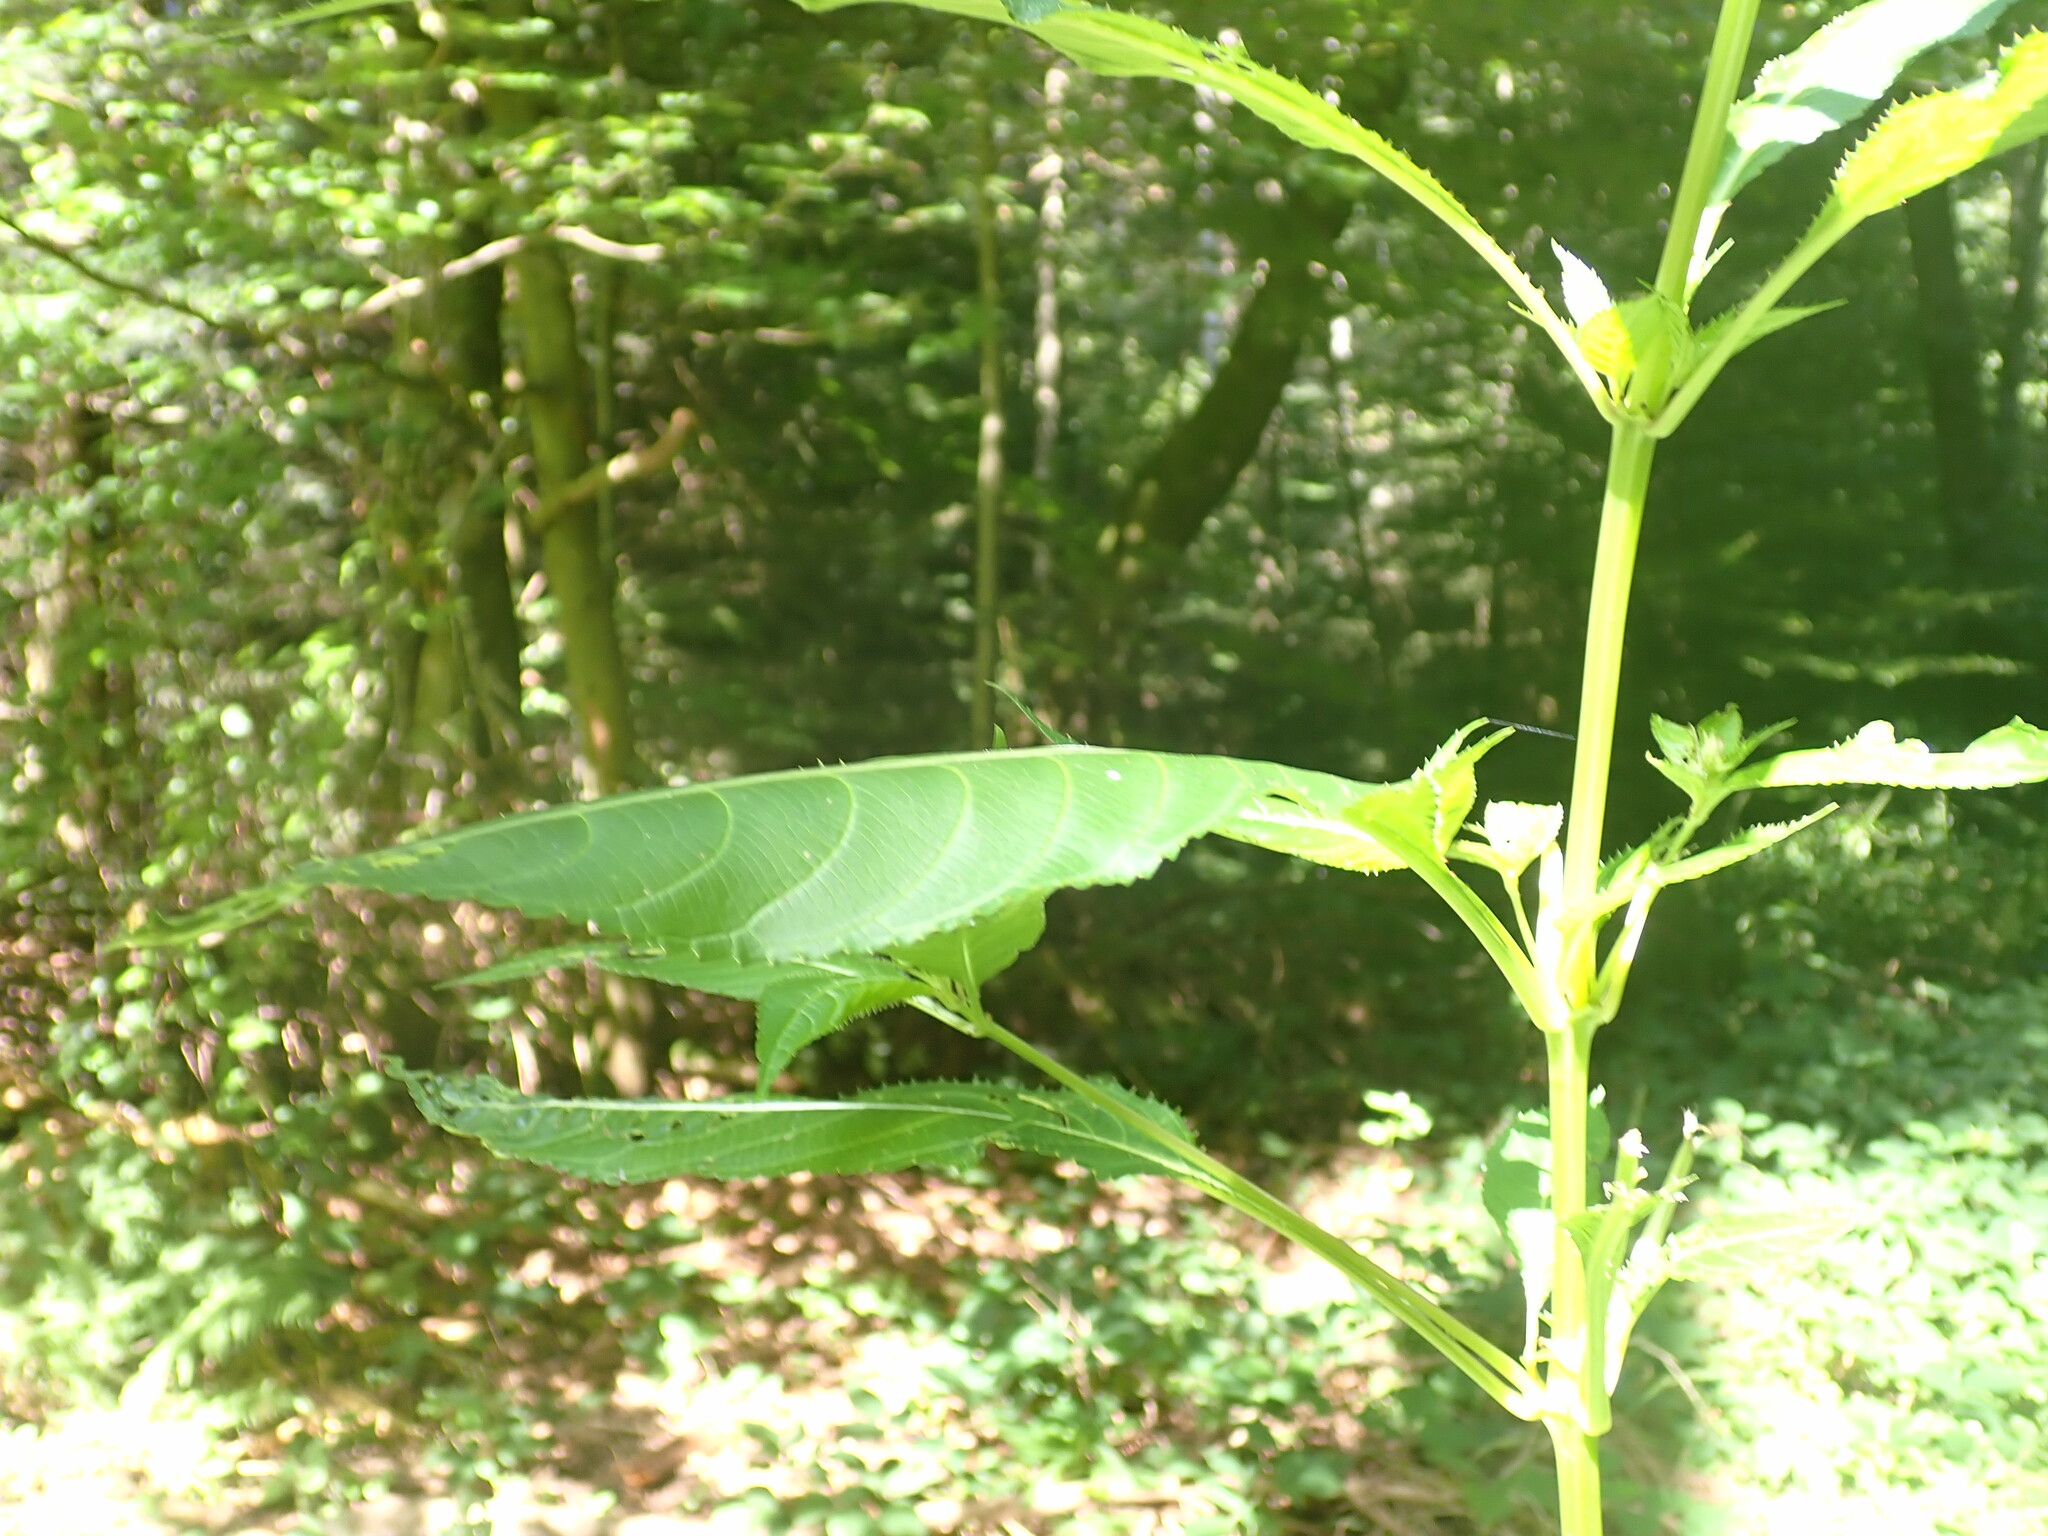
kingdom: Plantae
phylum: Tracheophyta
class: Magnoliopsida
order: Ericales
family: Balsaminaceae
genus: Impatiens
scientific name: Impatiens glandulifera
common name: Himalayan balsam
